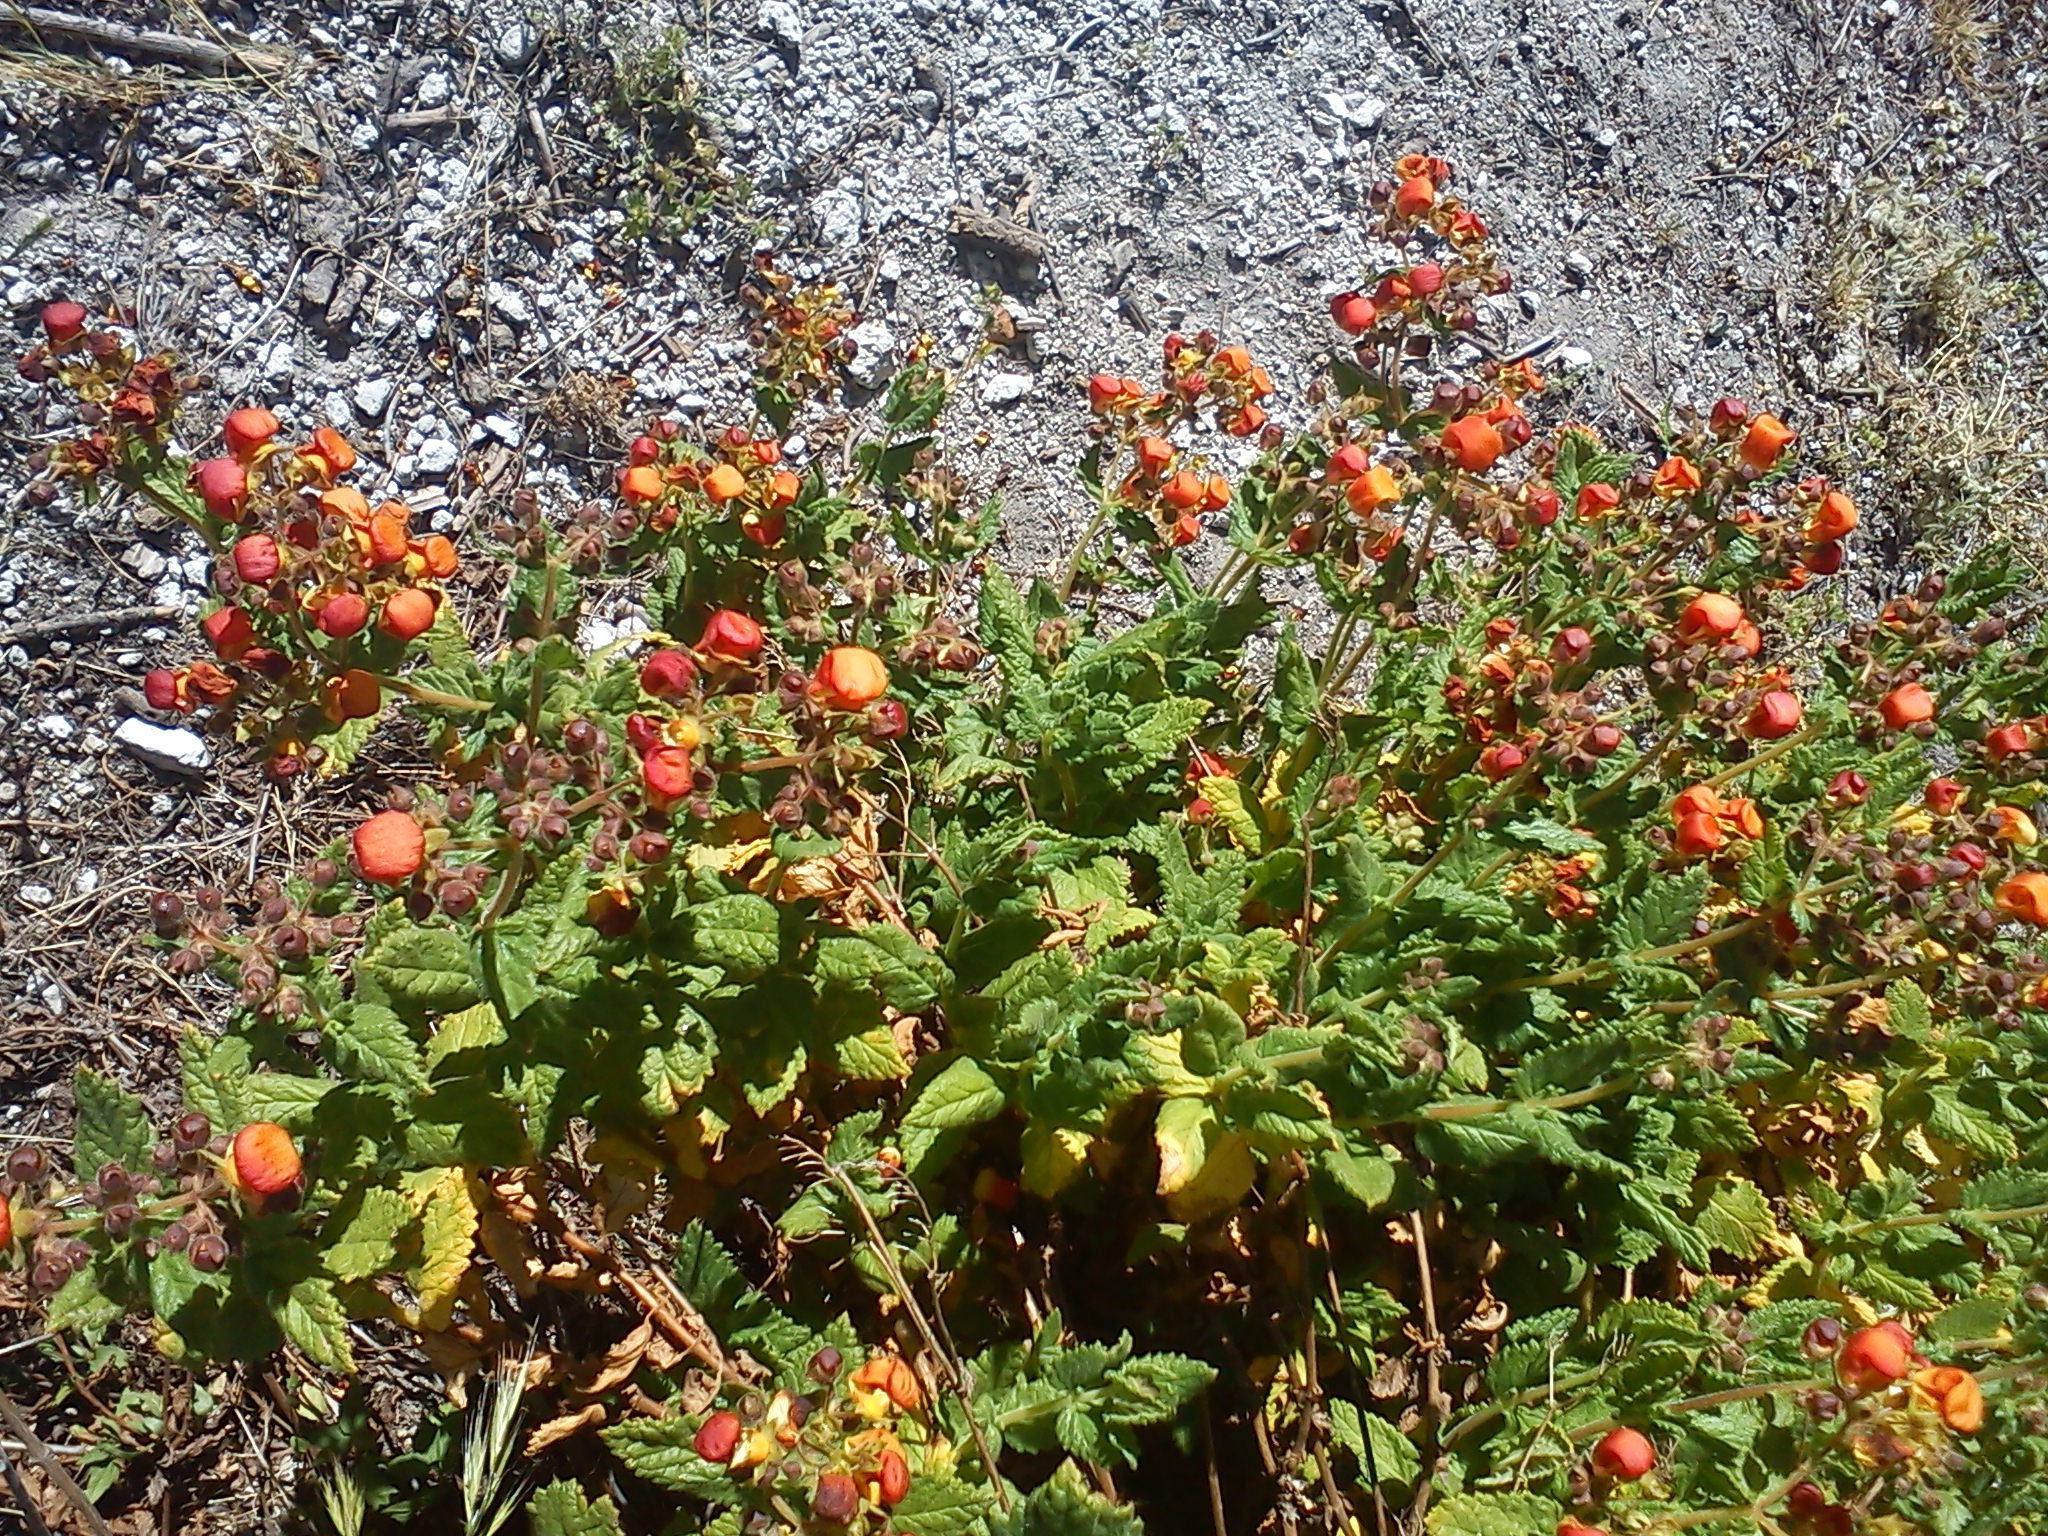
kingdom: Plantae
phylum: Tracheophyta
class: Magnoliopsida
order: Lamiales
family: Calceolariaceae
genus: Calceolaria
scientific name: Calceolaria pisacomensis
